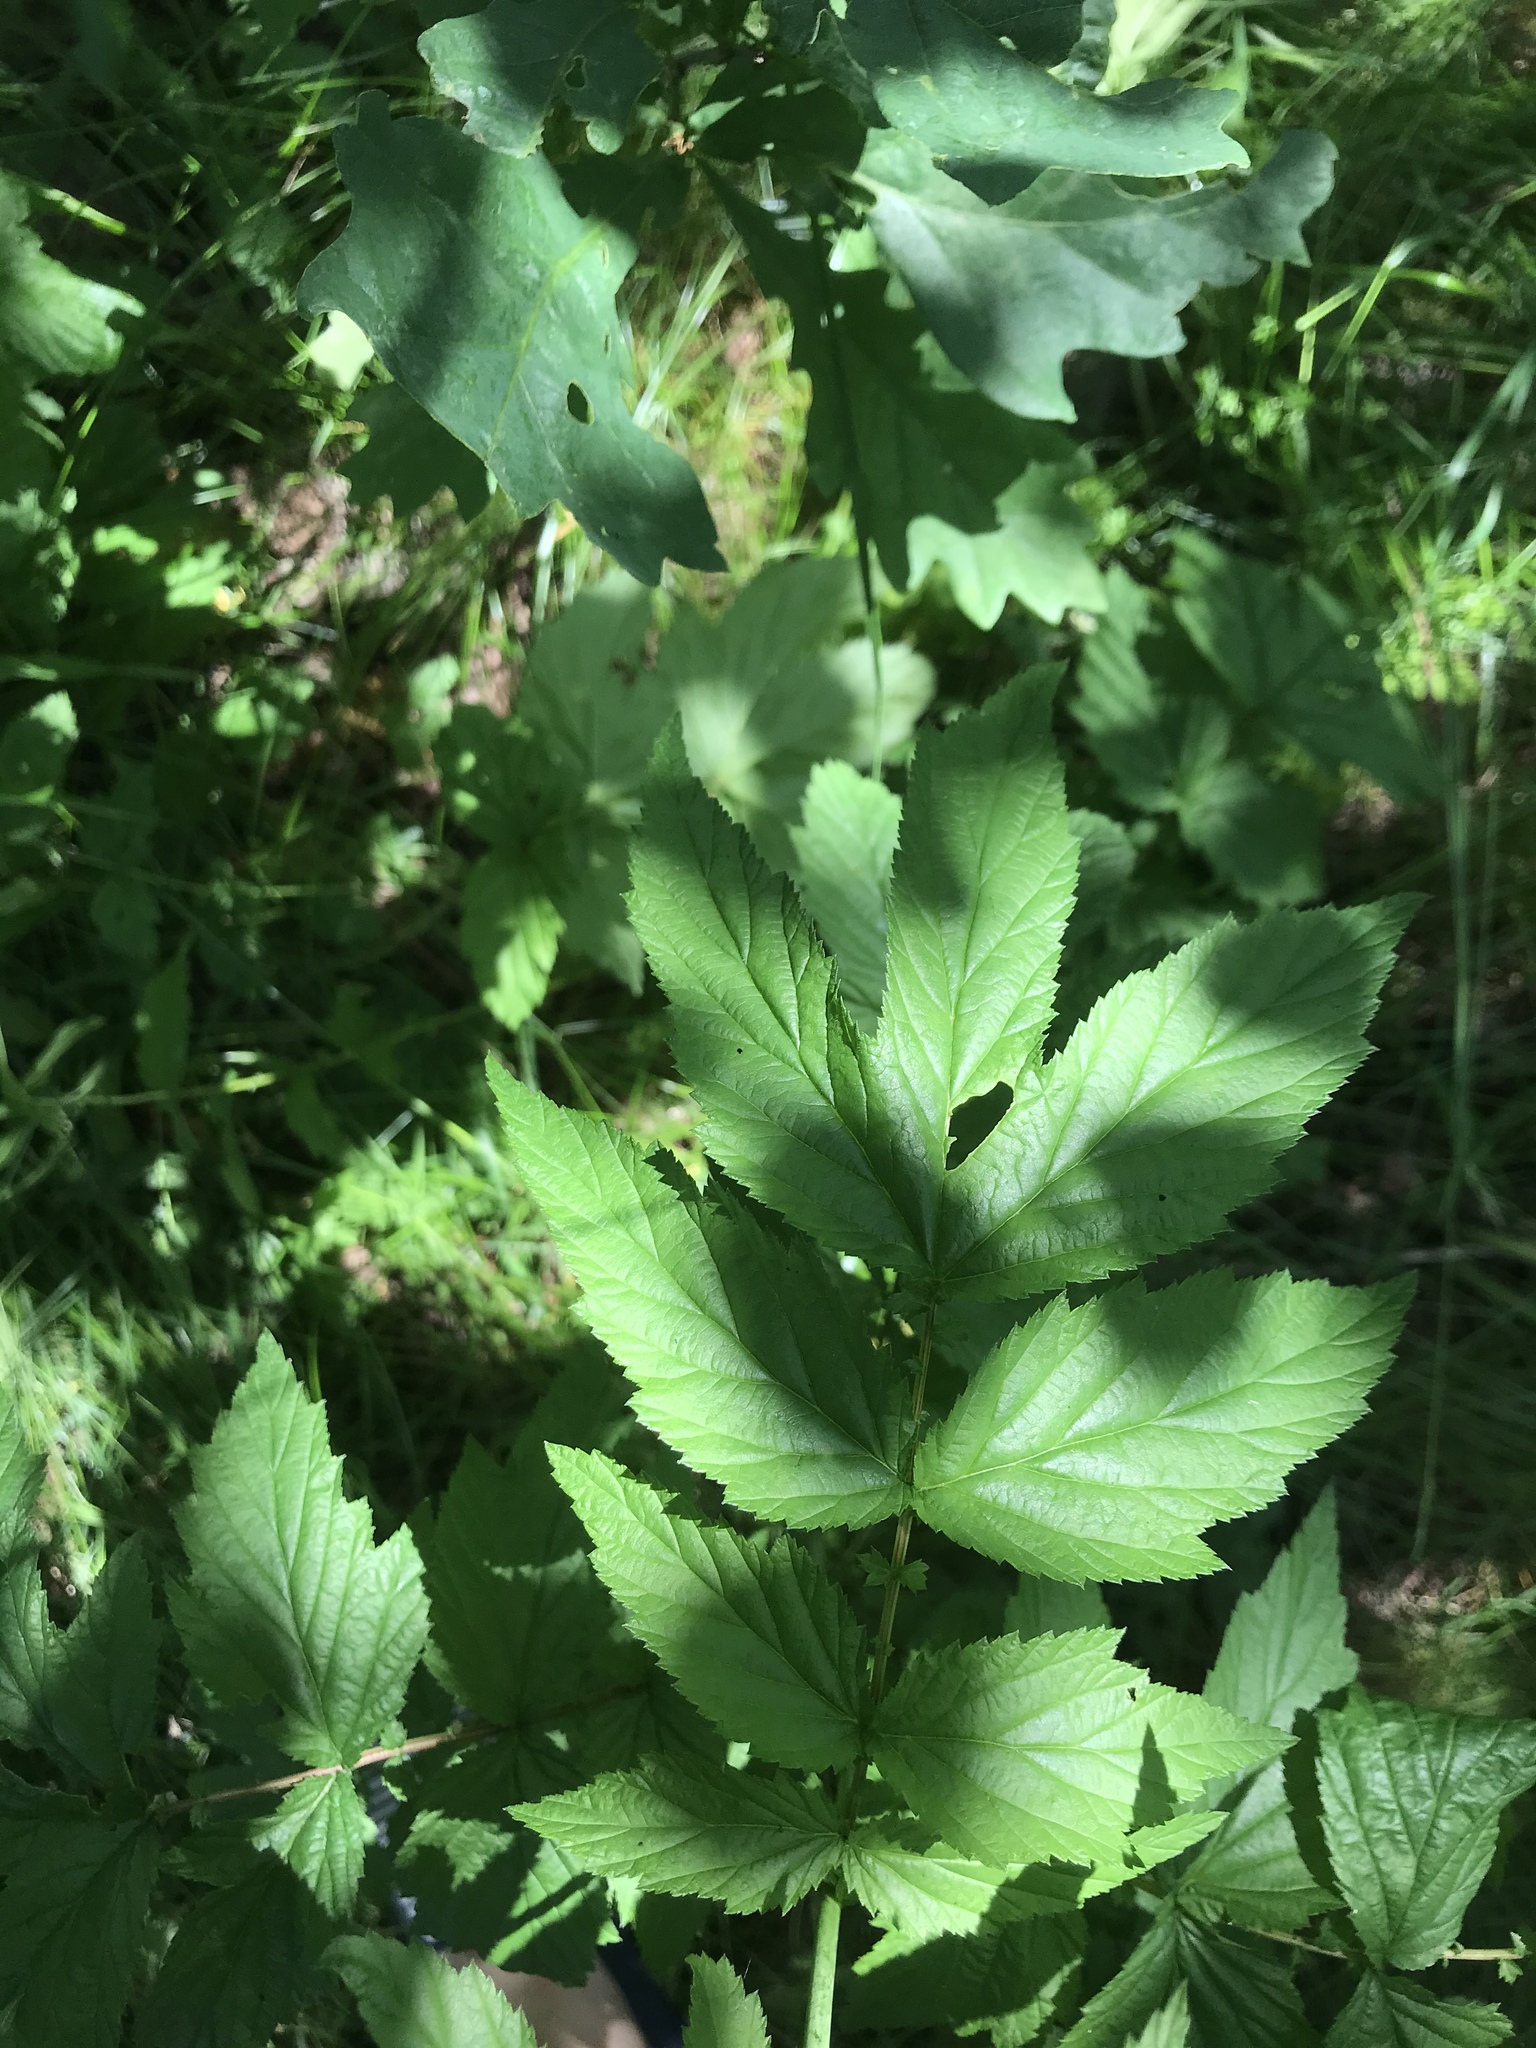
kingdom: Plantae
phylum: Tracheophyta
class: Magnoliopsida
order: Rosales
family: Rosaceae
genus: Filipendula
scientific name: Filipendula ulmaria
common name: Meadowsweet
